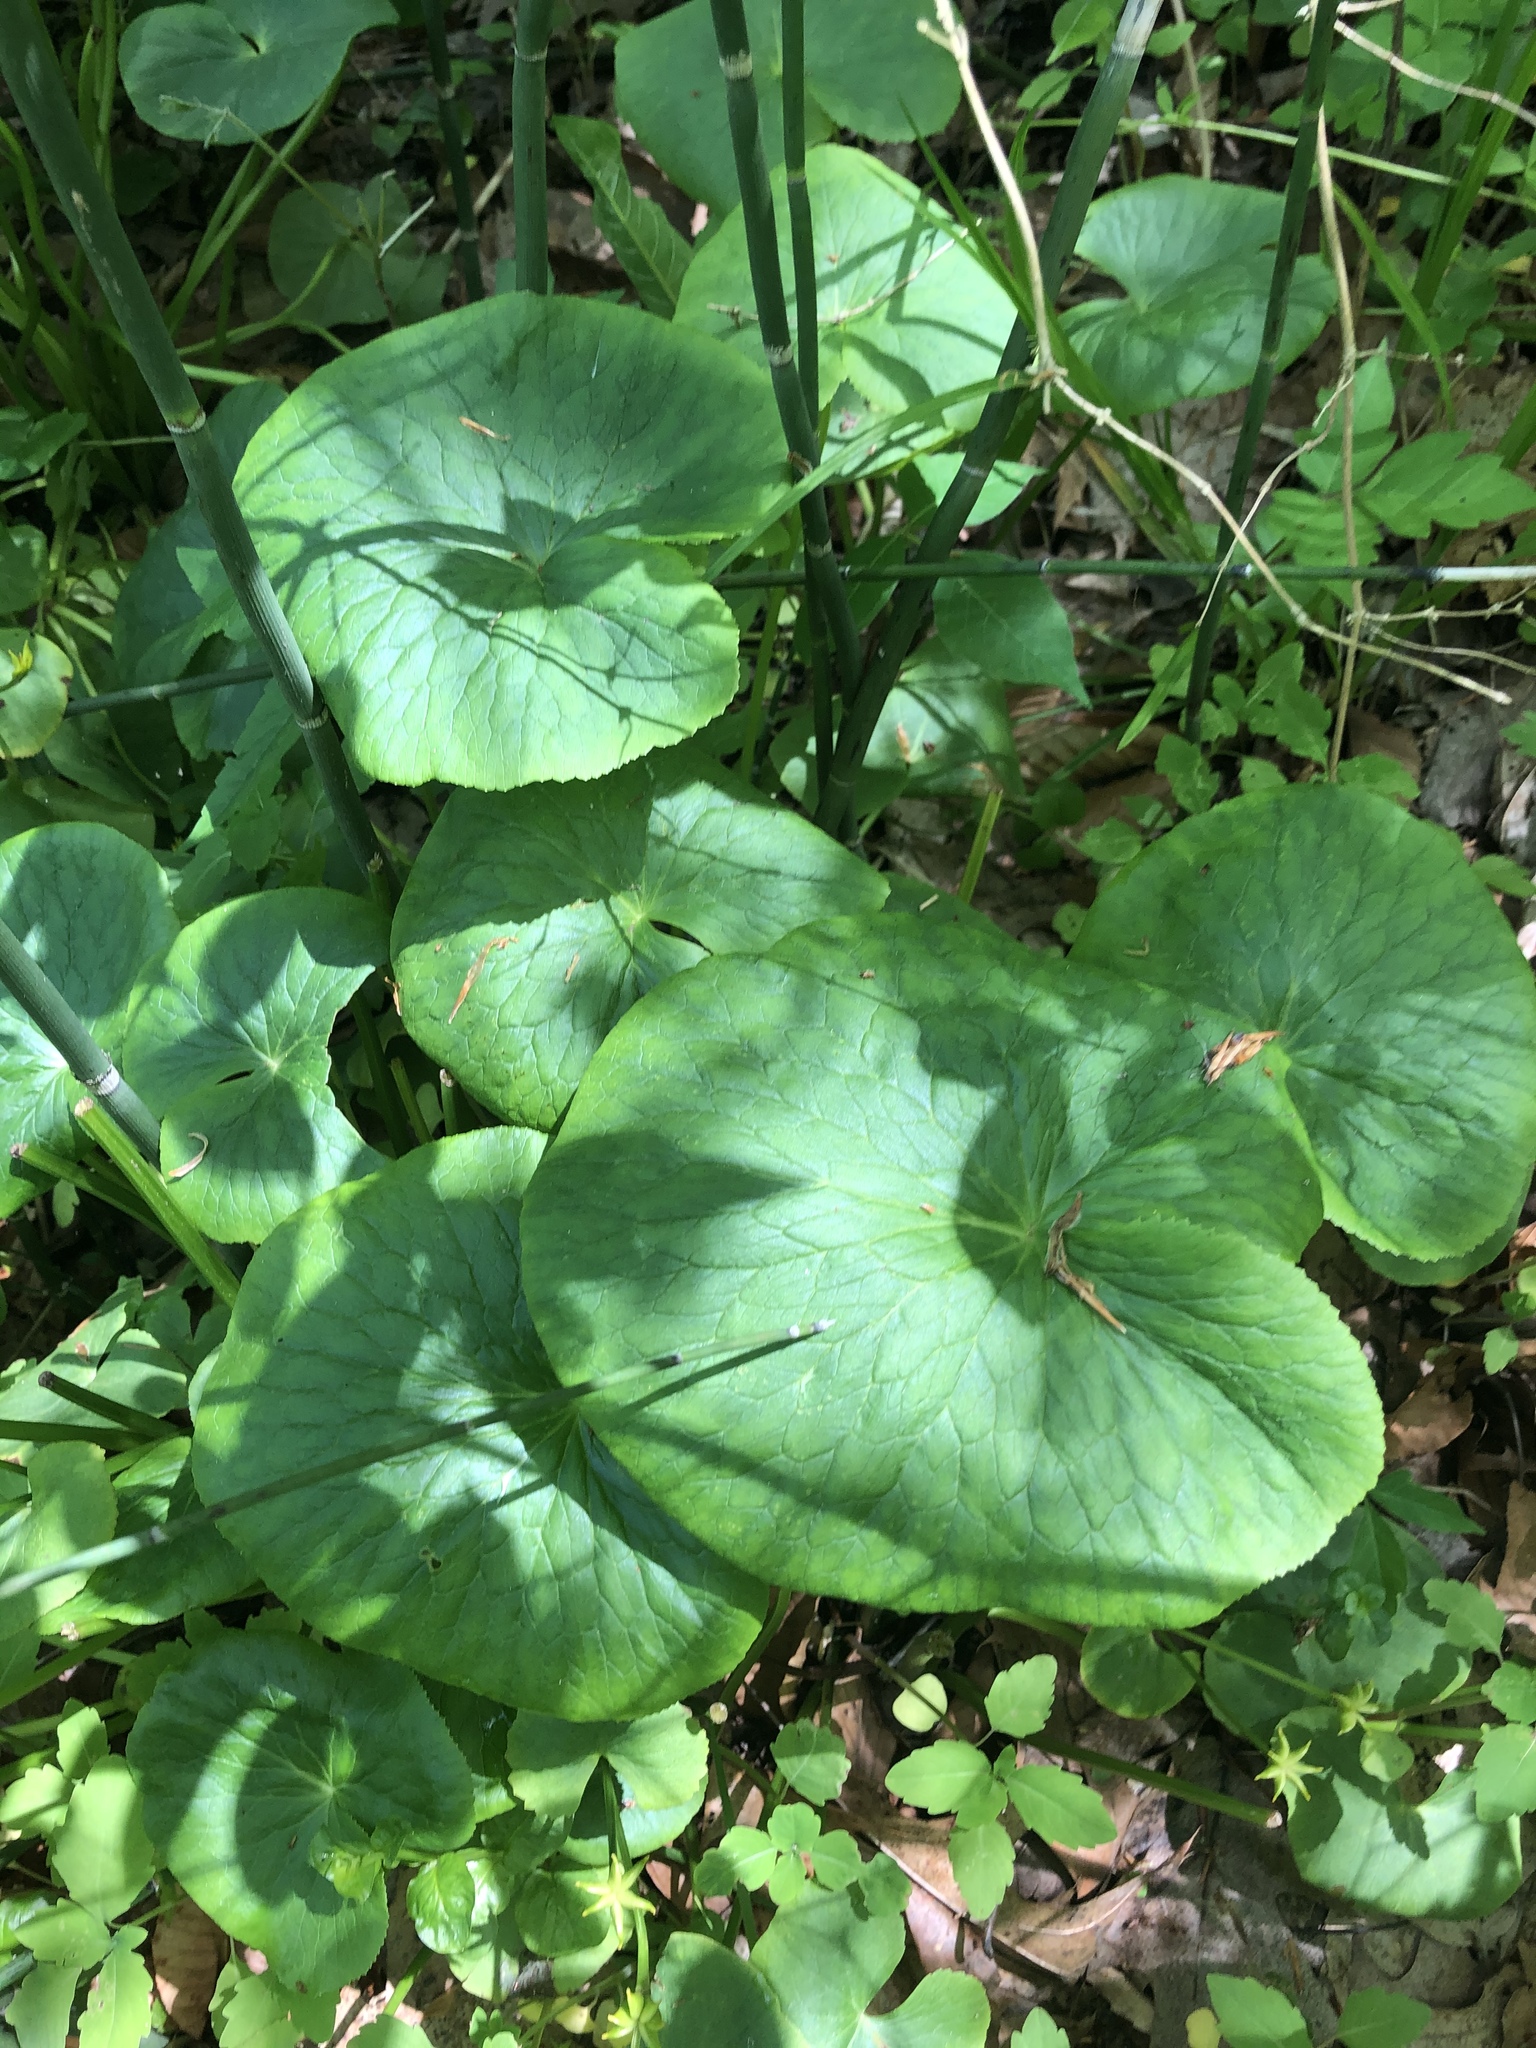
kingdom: Plantae
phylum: Tracheophyta
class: Magnoliopsida
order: Ranunculales
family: Ranunculaceae
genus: Caltha
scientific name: Caltha palustris
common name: Marsh marigold
